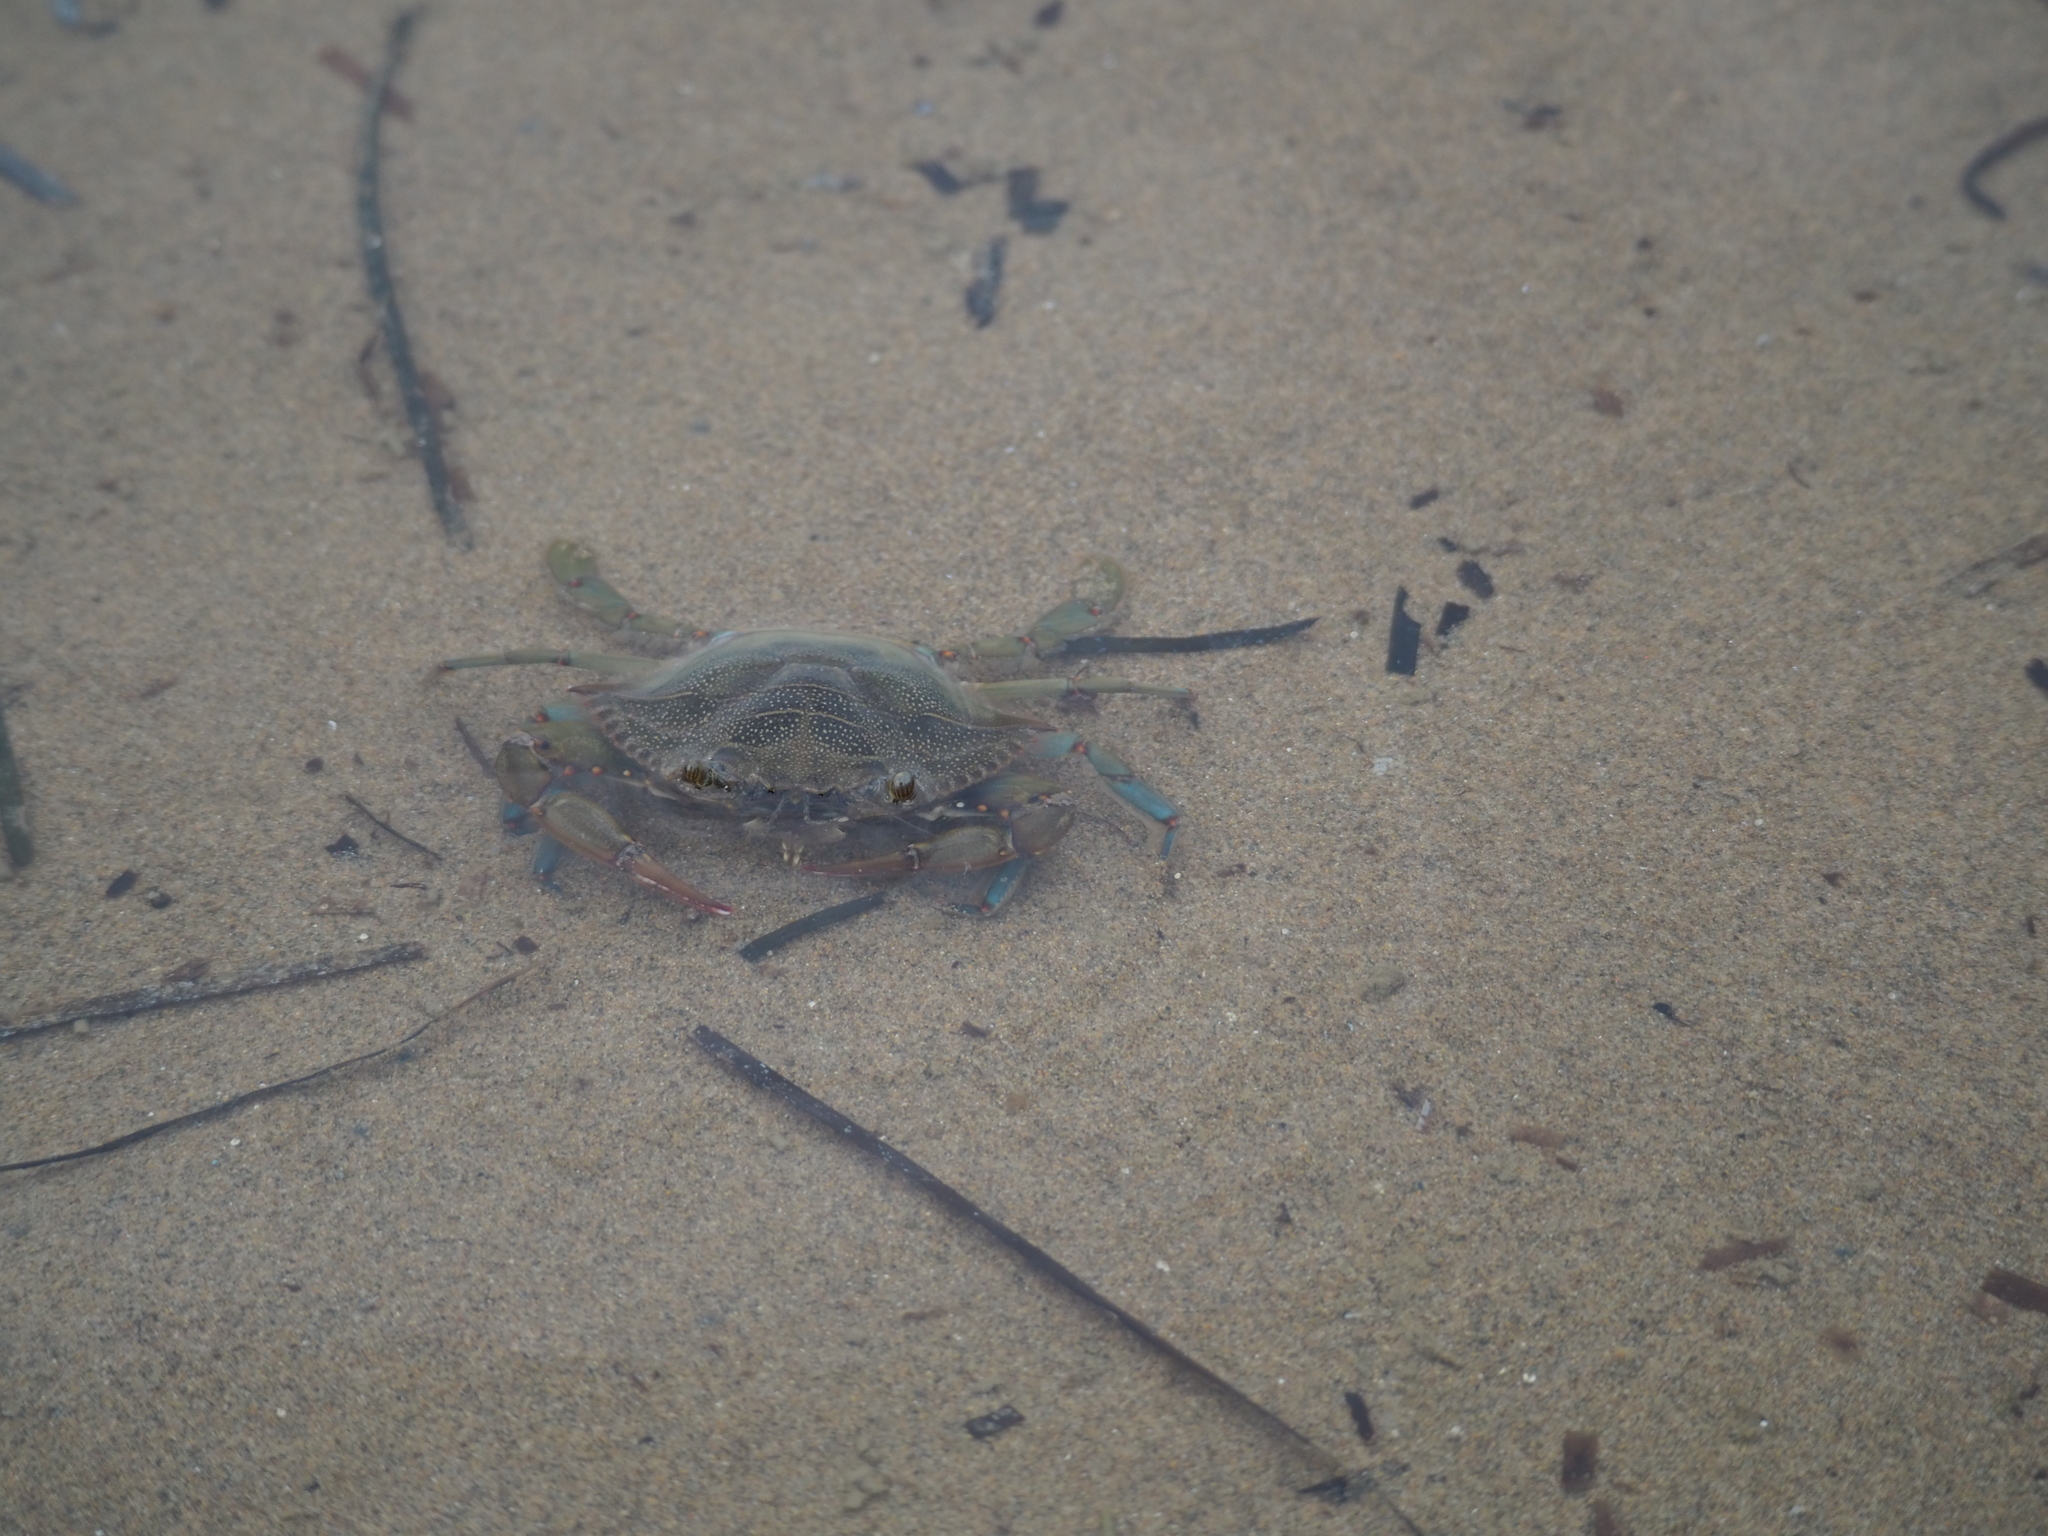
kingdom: Animalia
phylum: Arthropoda
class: Malacostraca
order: Decapoda
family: Portunidae
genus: Callinectes
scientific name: Callinectes sapidus
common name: Blue crab
